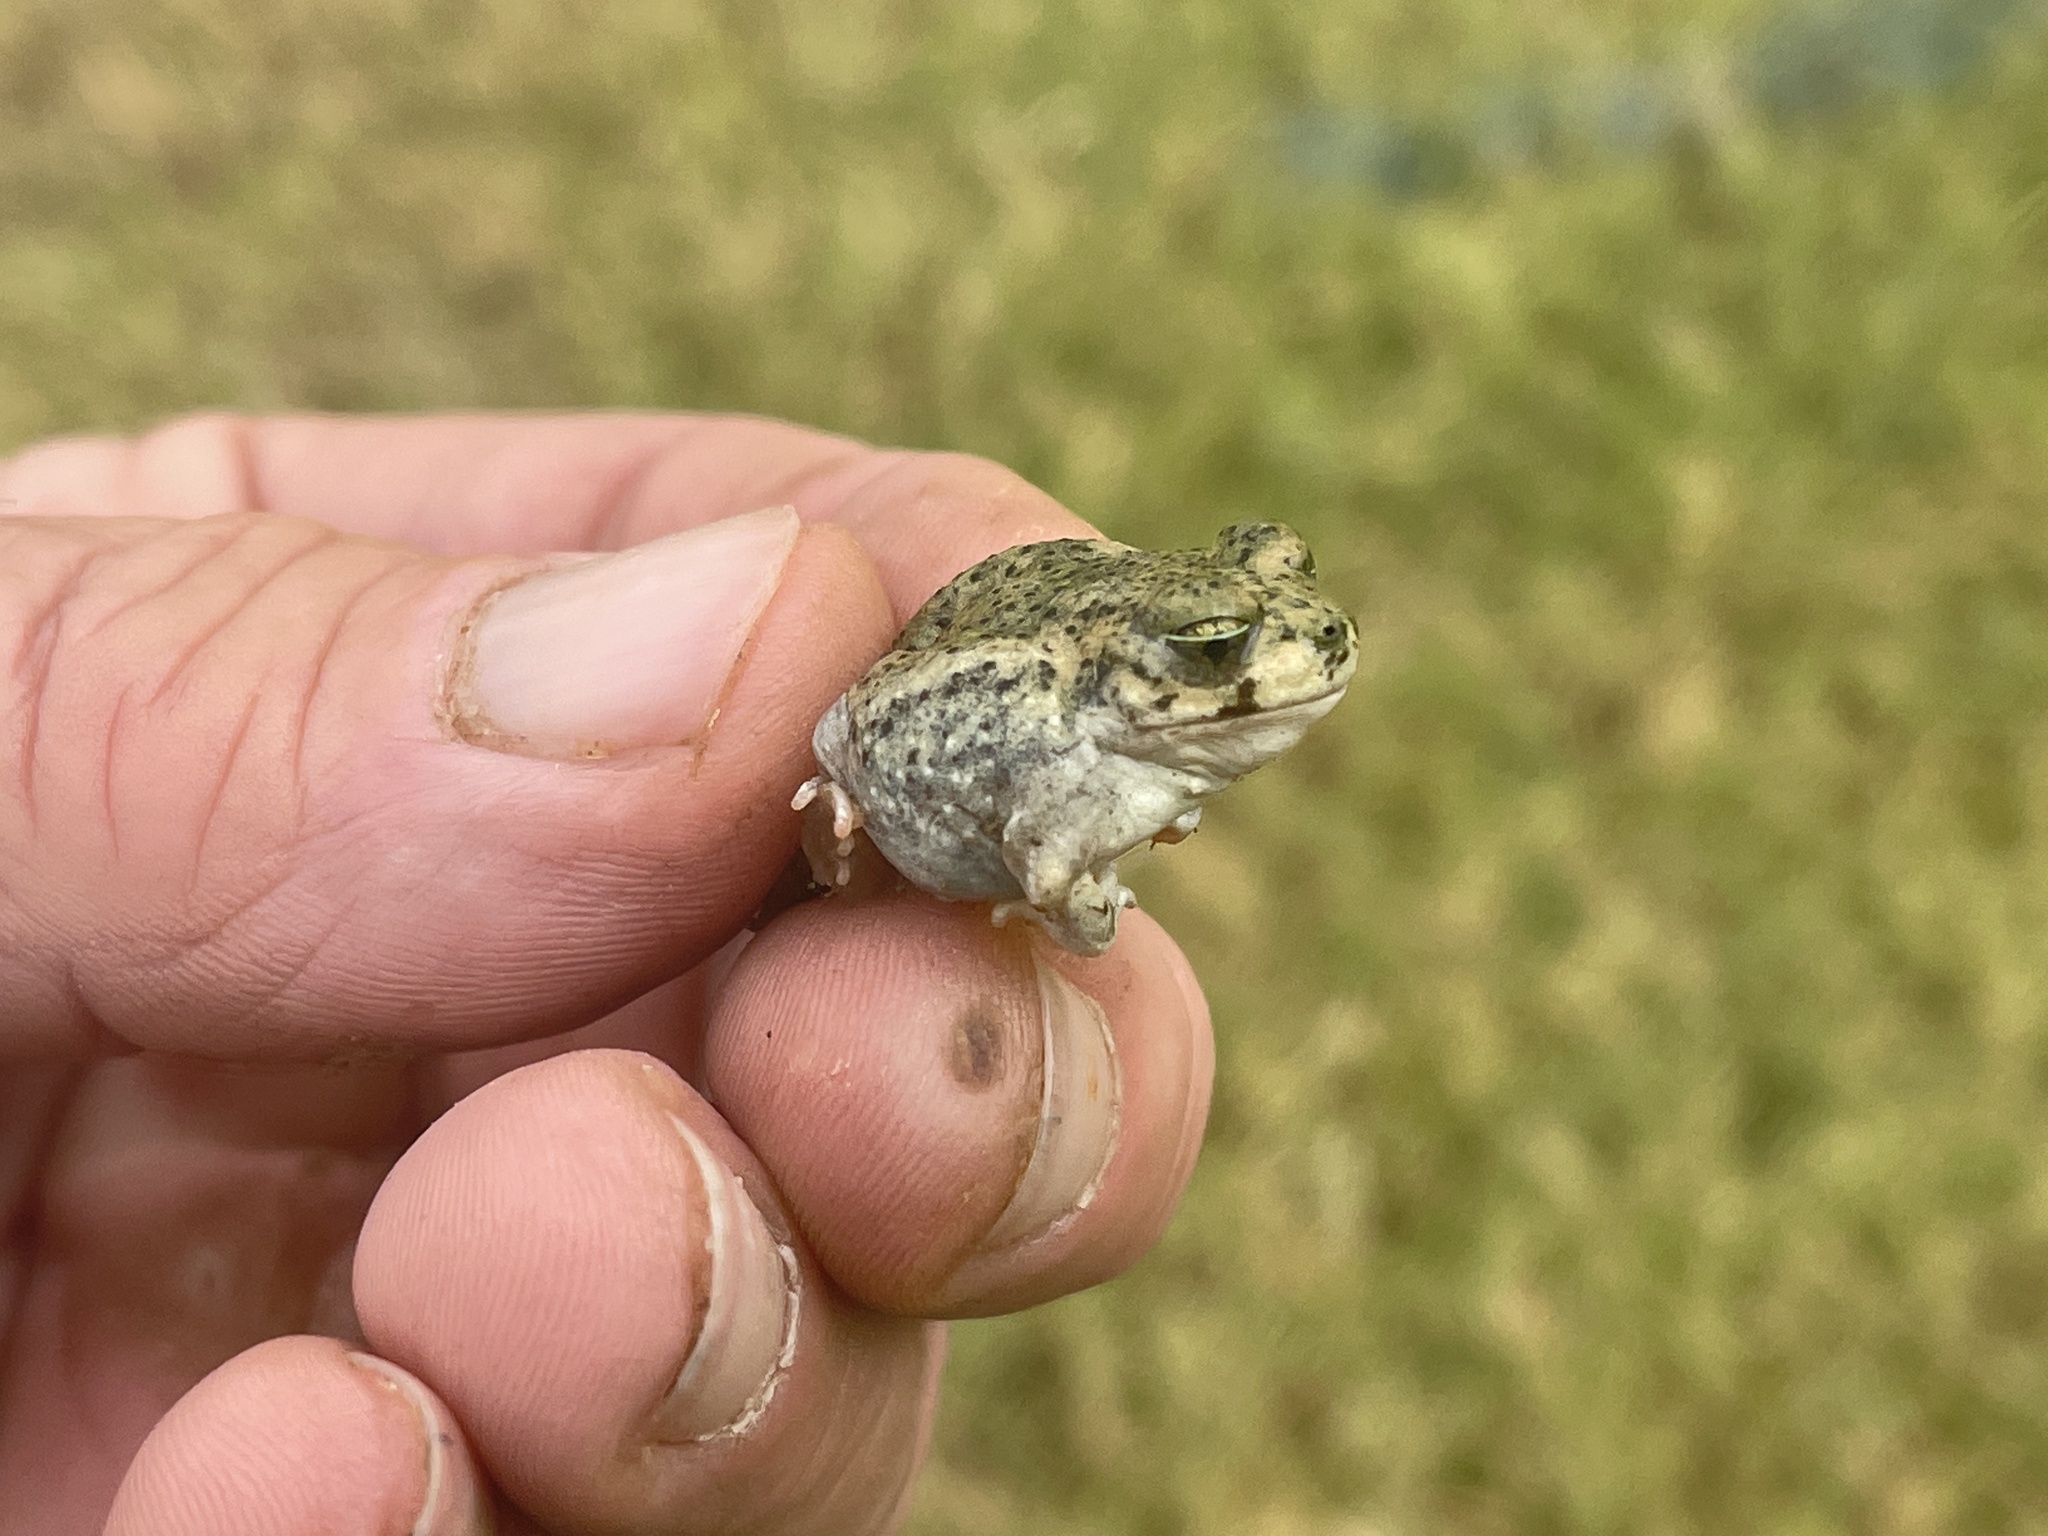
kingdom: Animalia
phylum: Chordata
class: Amphibia
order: Anura
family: Scaphiopodidae
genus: Spea
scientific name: Spea multiplicata
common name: Mexican spadefoot
